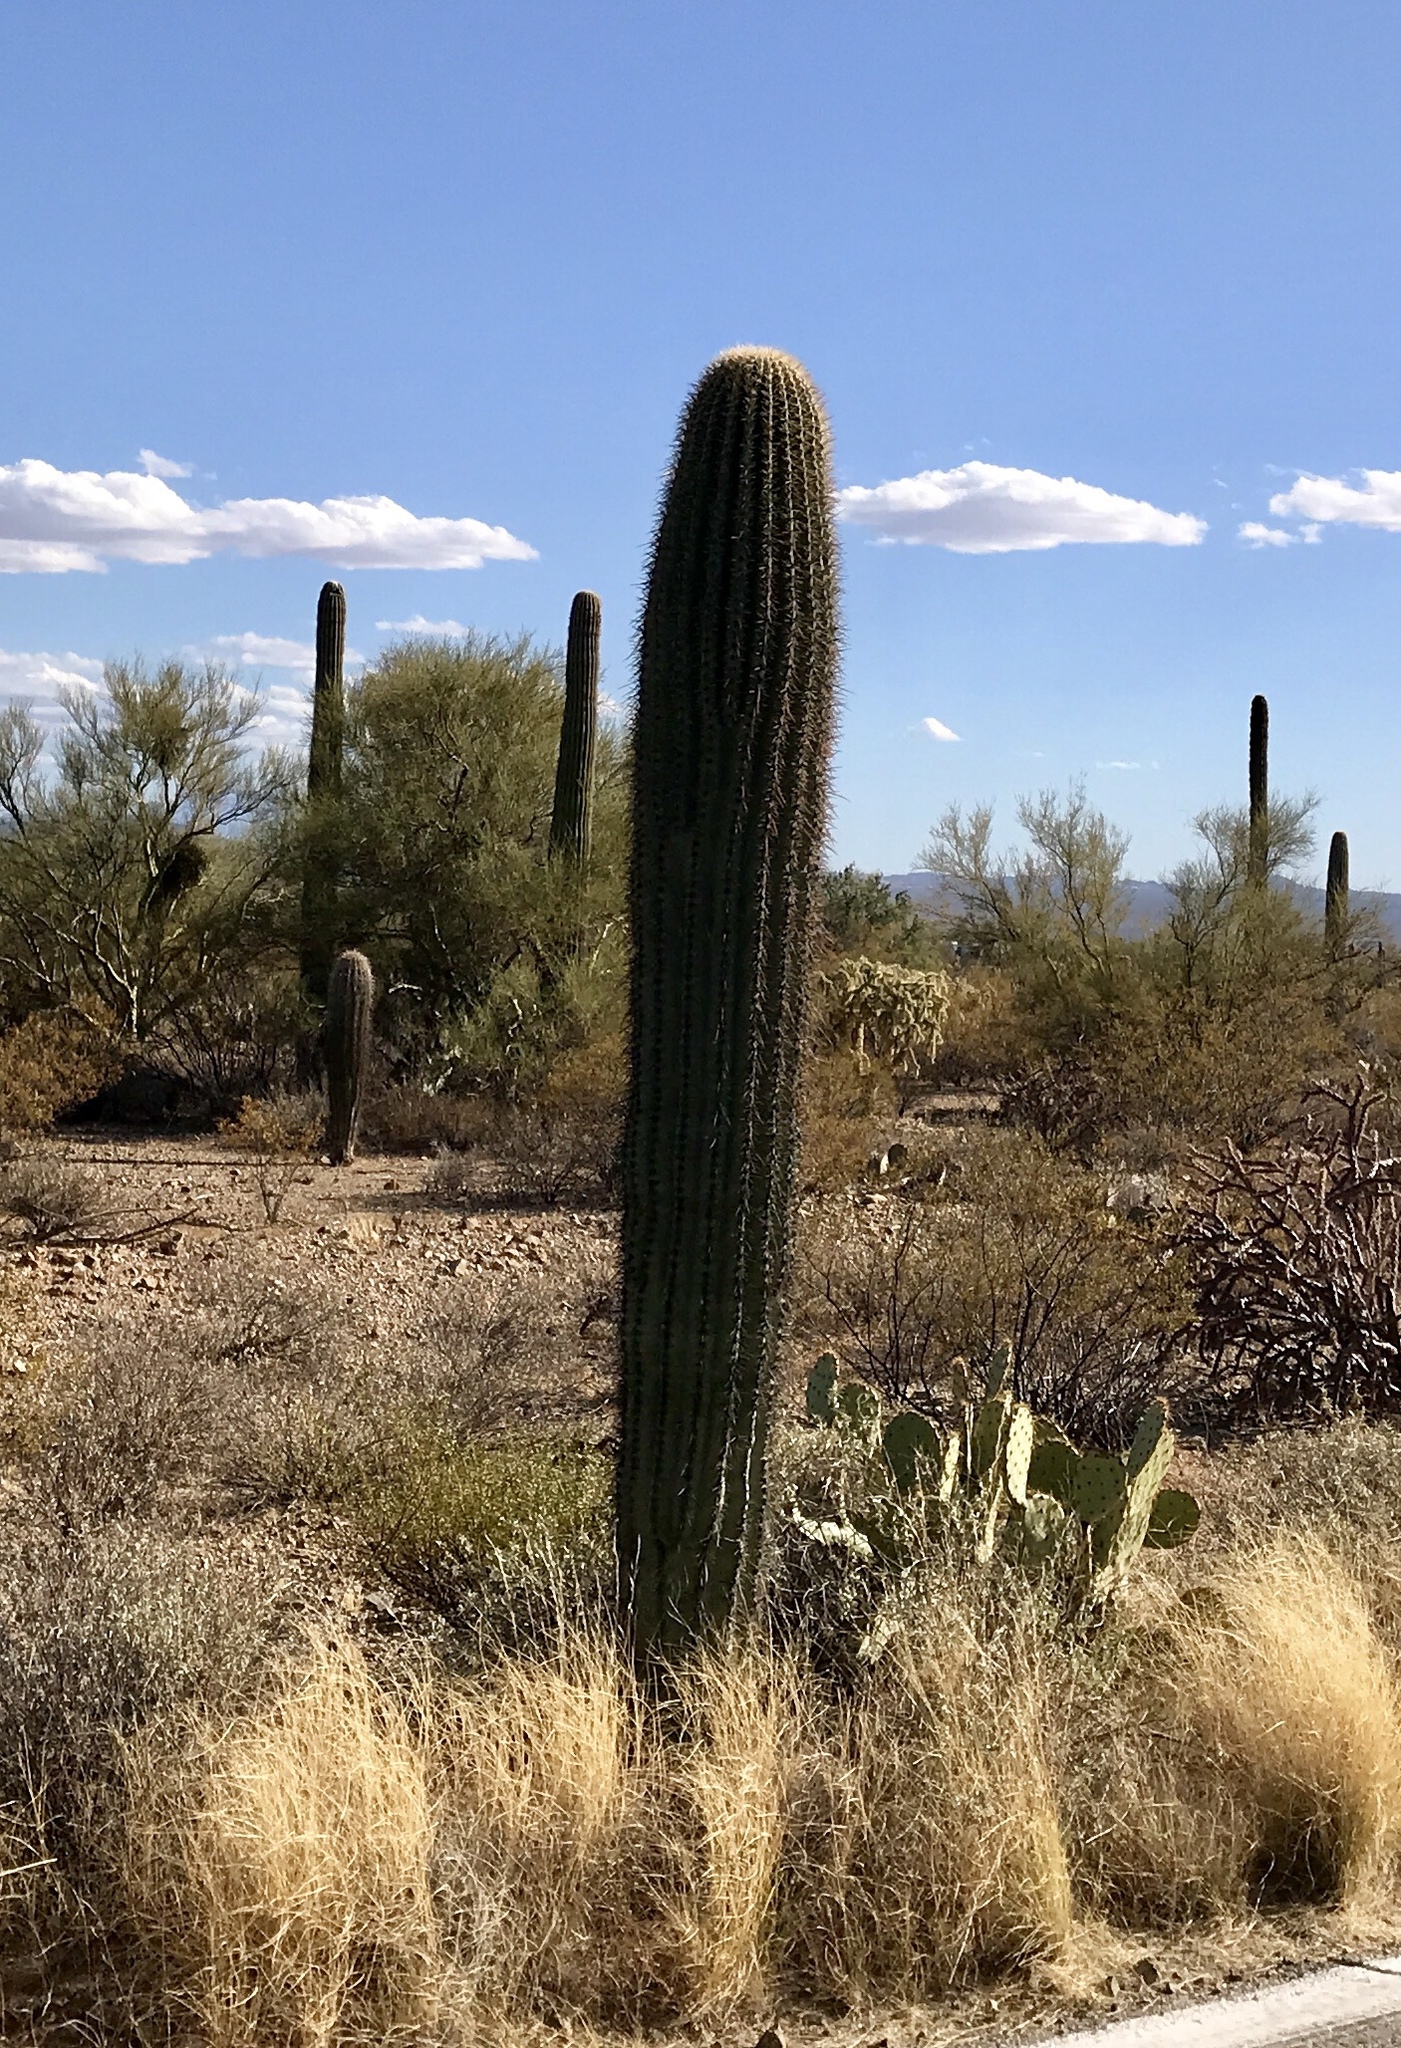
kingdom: Plantae
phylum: Tracheophyta
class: Magnoliopsida
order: Caryophyllales
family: Cactaceae
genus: Carnegiea
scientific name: Carnegiea gigantea
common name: Saguaro
